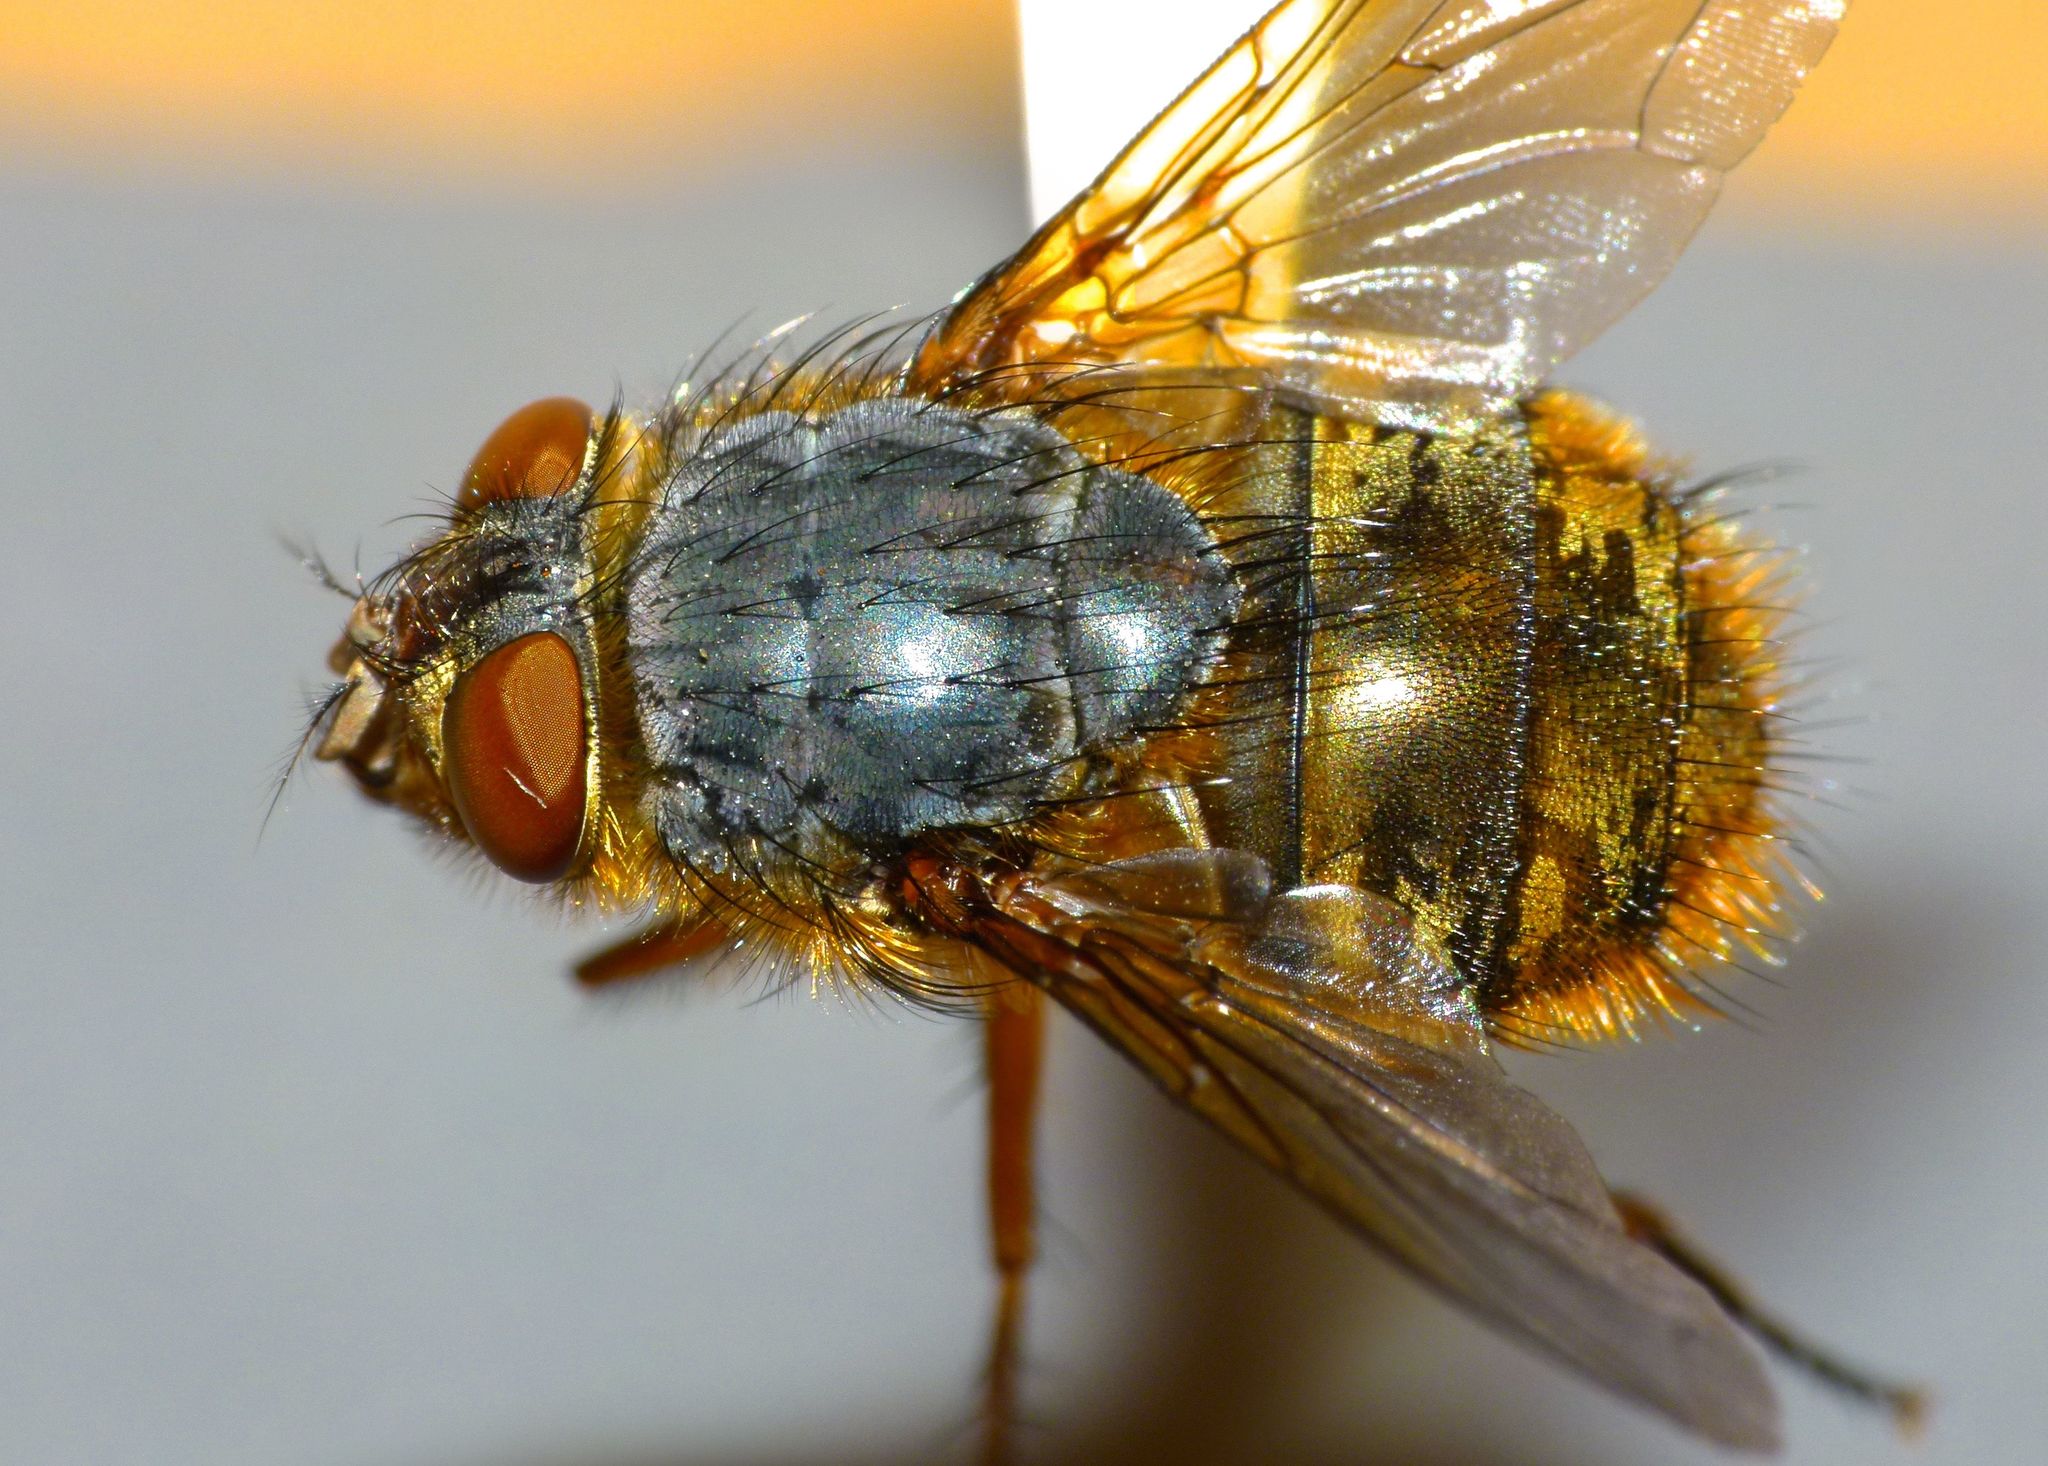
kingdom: Animalia
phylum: Arthropoda
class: Insecta
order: Diptera
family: Calliphoridae
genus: Calliphora
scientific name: Calliphora hilli
